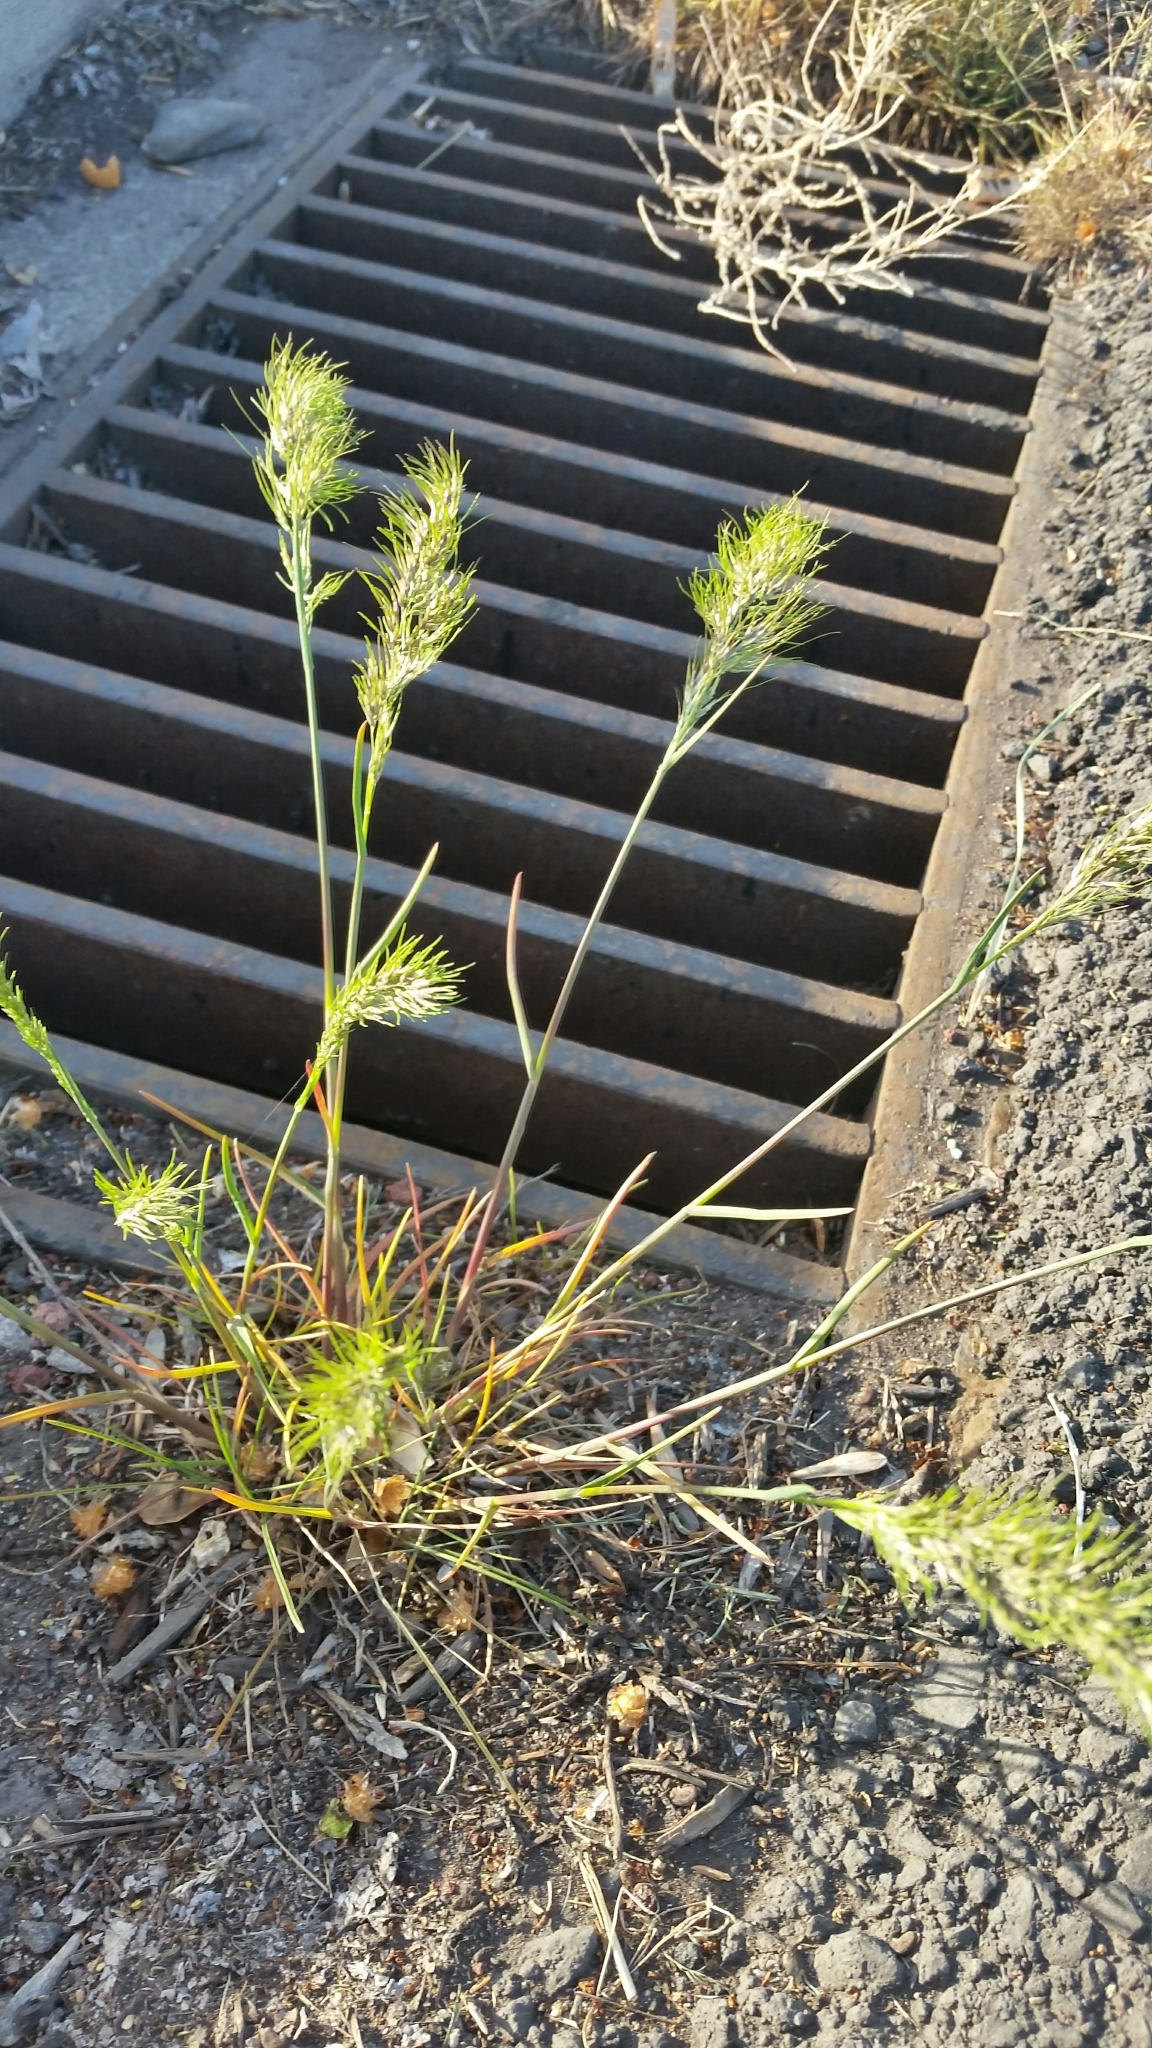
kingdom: Plantae
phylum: Tracheophyta
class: Liliopsida
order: Poales
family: Poaceae
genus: Poa
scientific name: Poa bulbosa
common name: Bulbous bluegrass
